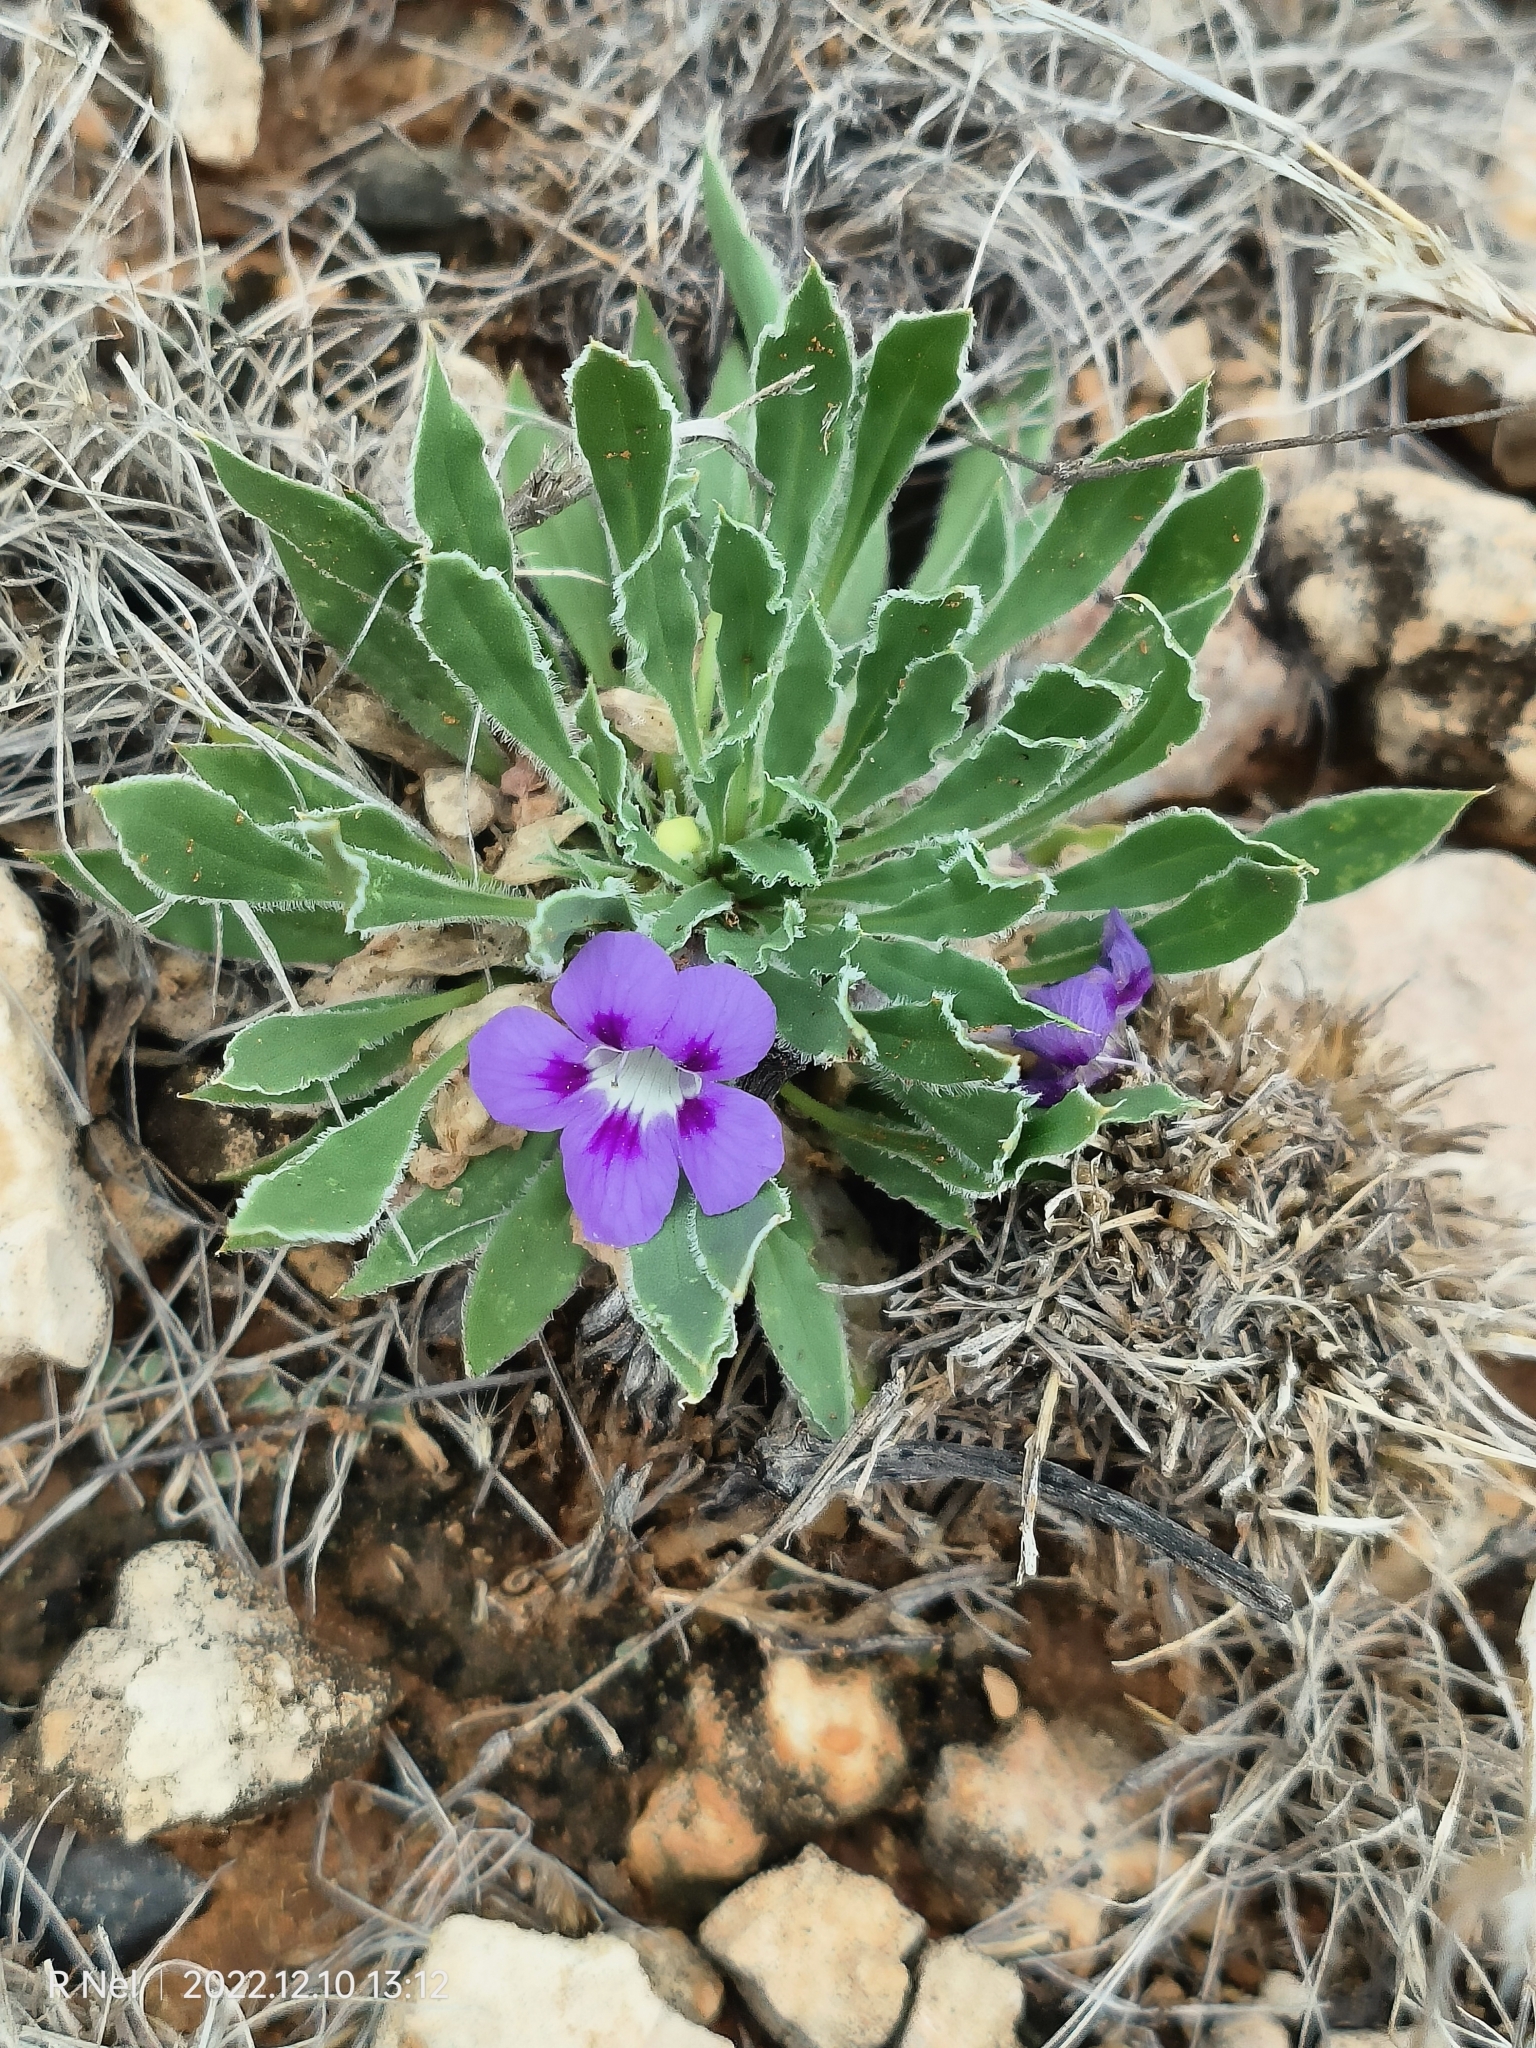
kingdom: Plantae
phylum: Tracheophyta
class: Magnoliopsida
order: Lamiales
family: Scrophulariaceae
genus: Aptosimum
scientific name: Aptosimum indivisum
